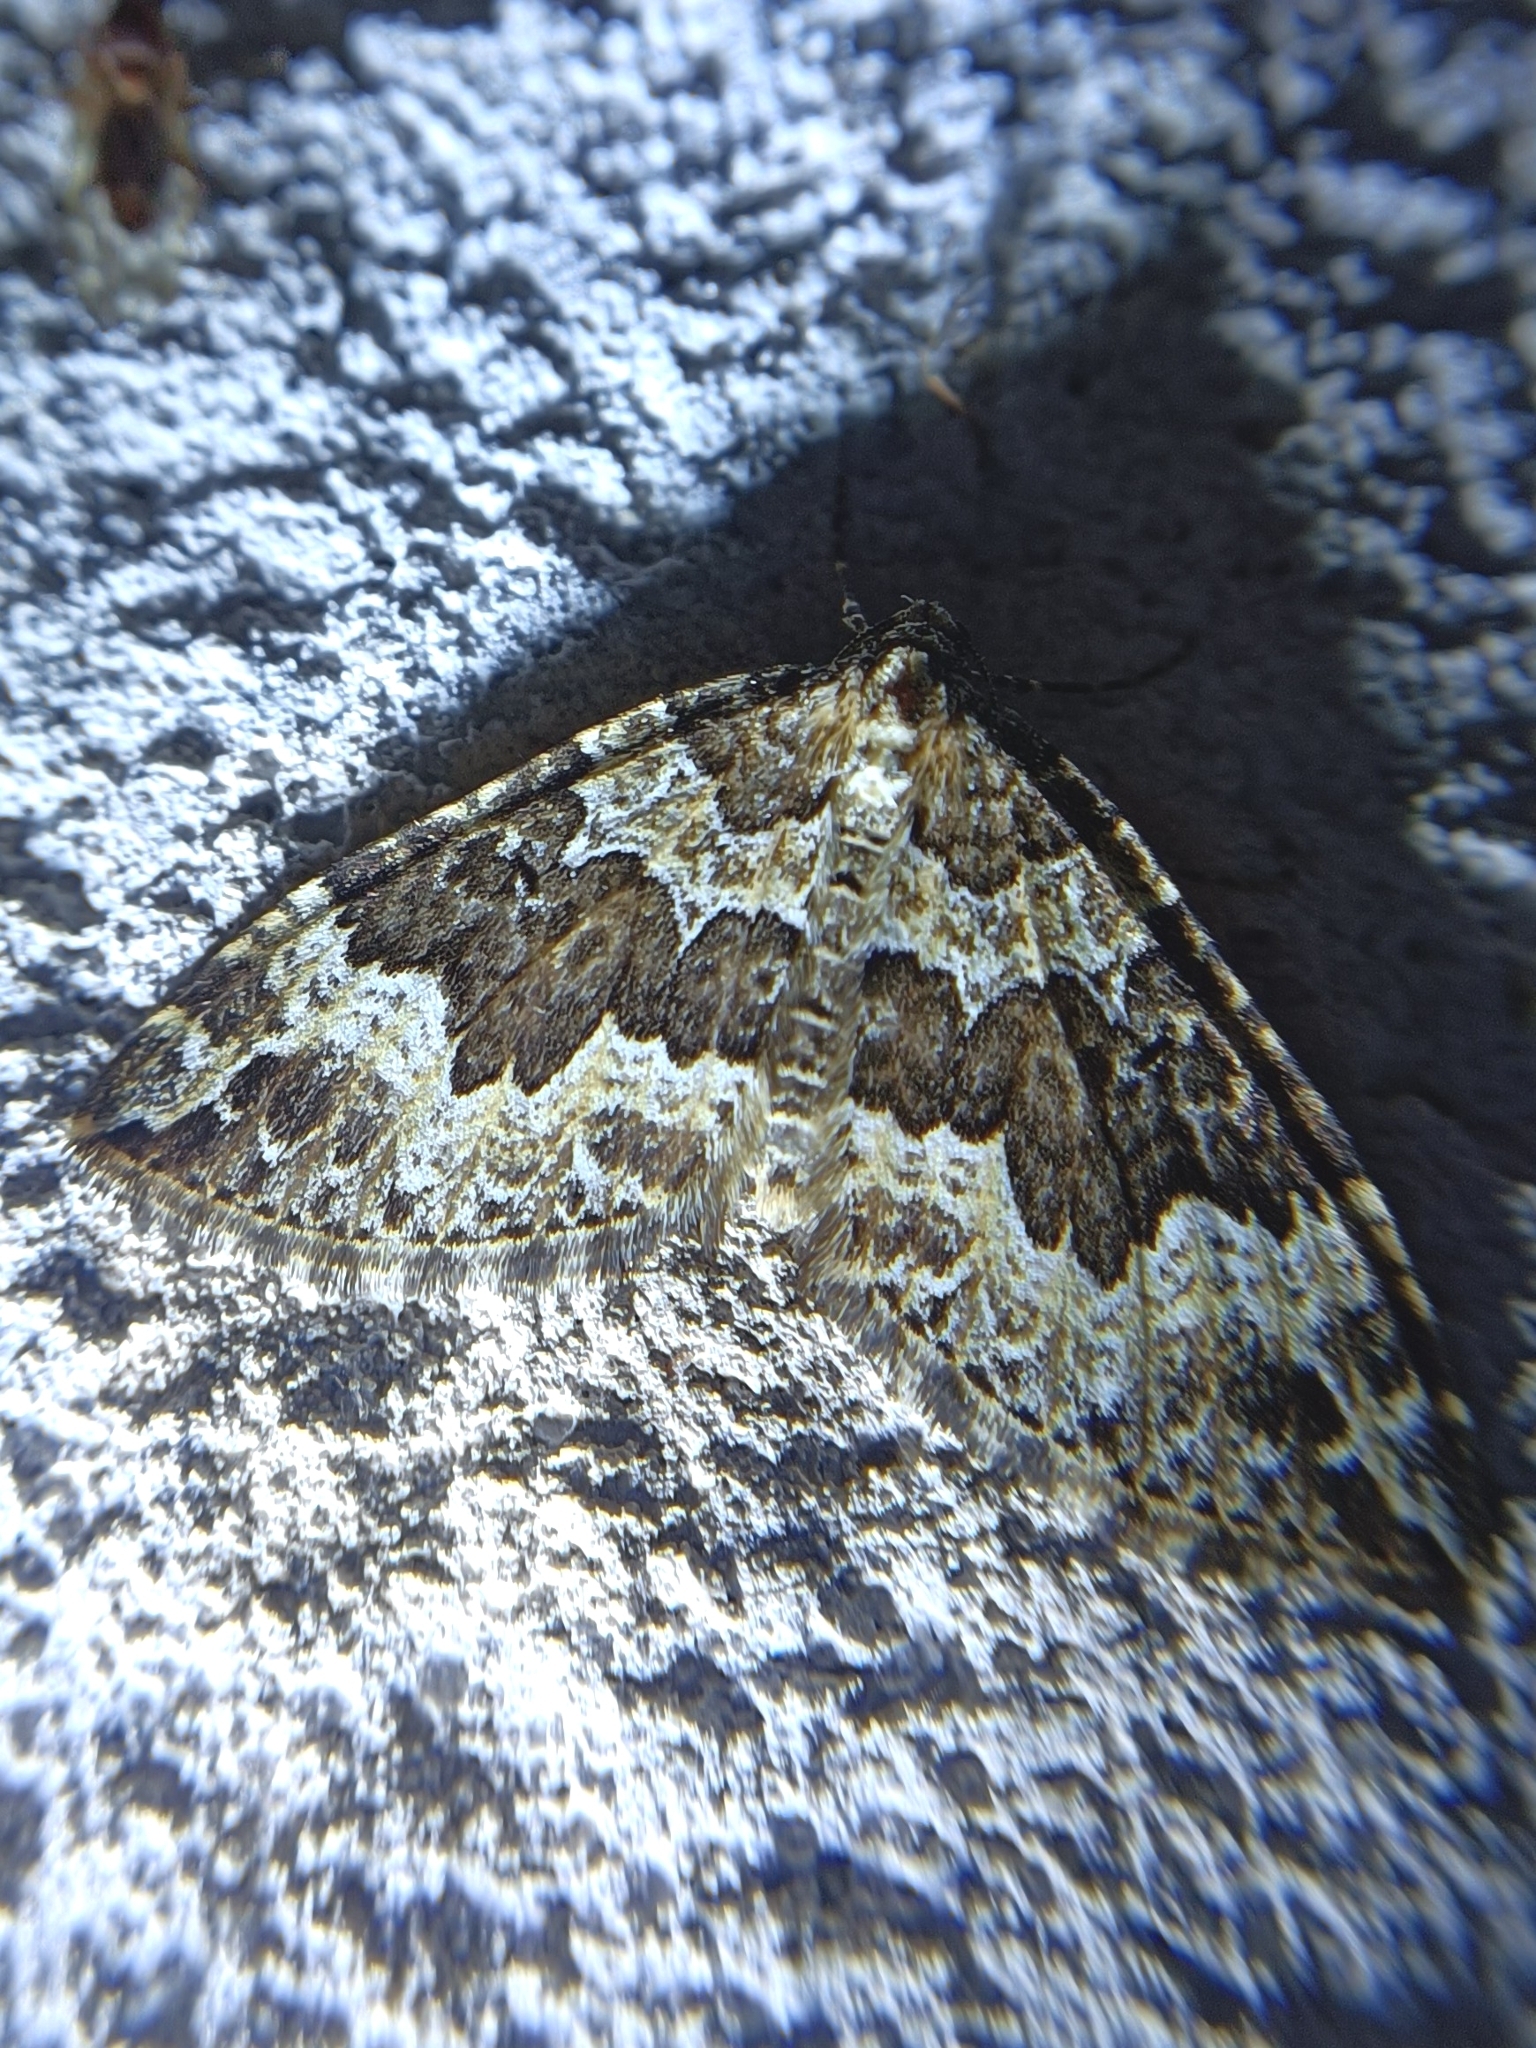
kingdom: Animalia
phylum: Arthropoda
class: Insecta
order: Lepidoptera
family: Geometridae
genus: Lampropteryx
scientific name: Lampropteryx suffumata
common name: Water carpet
